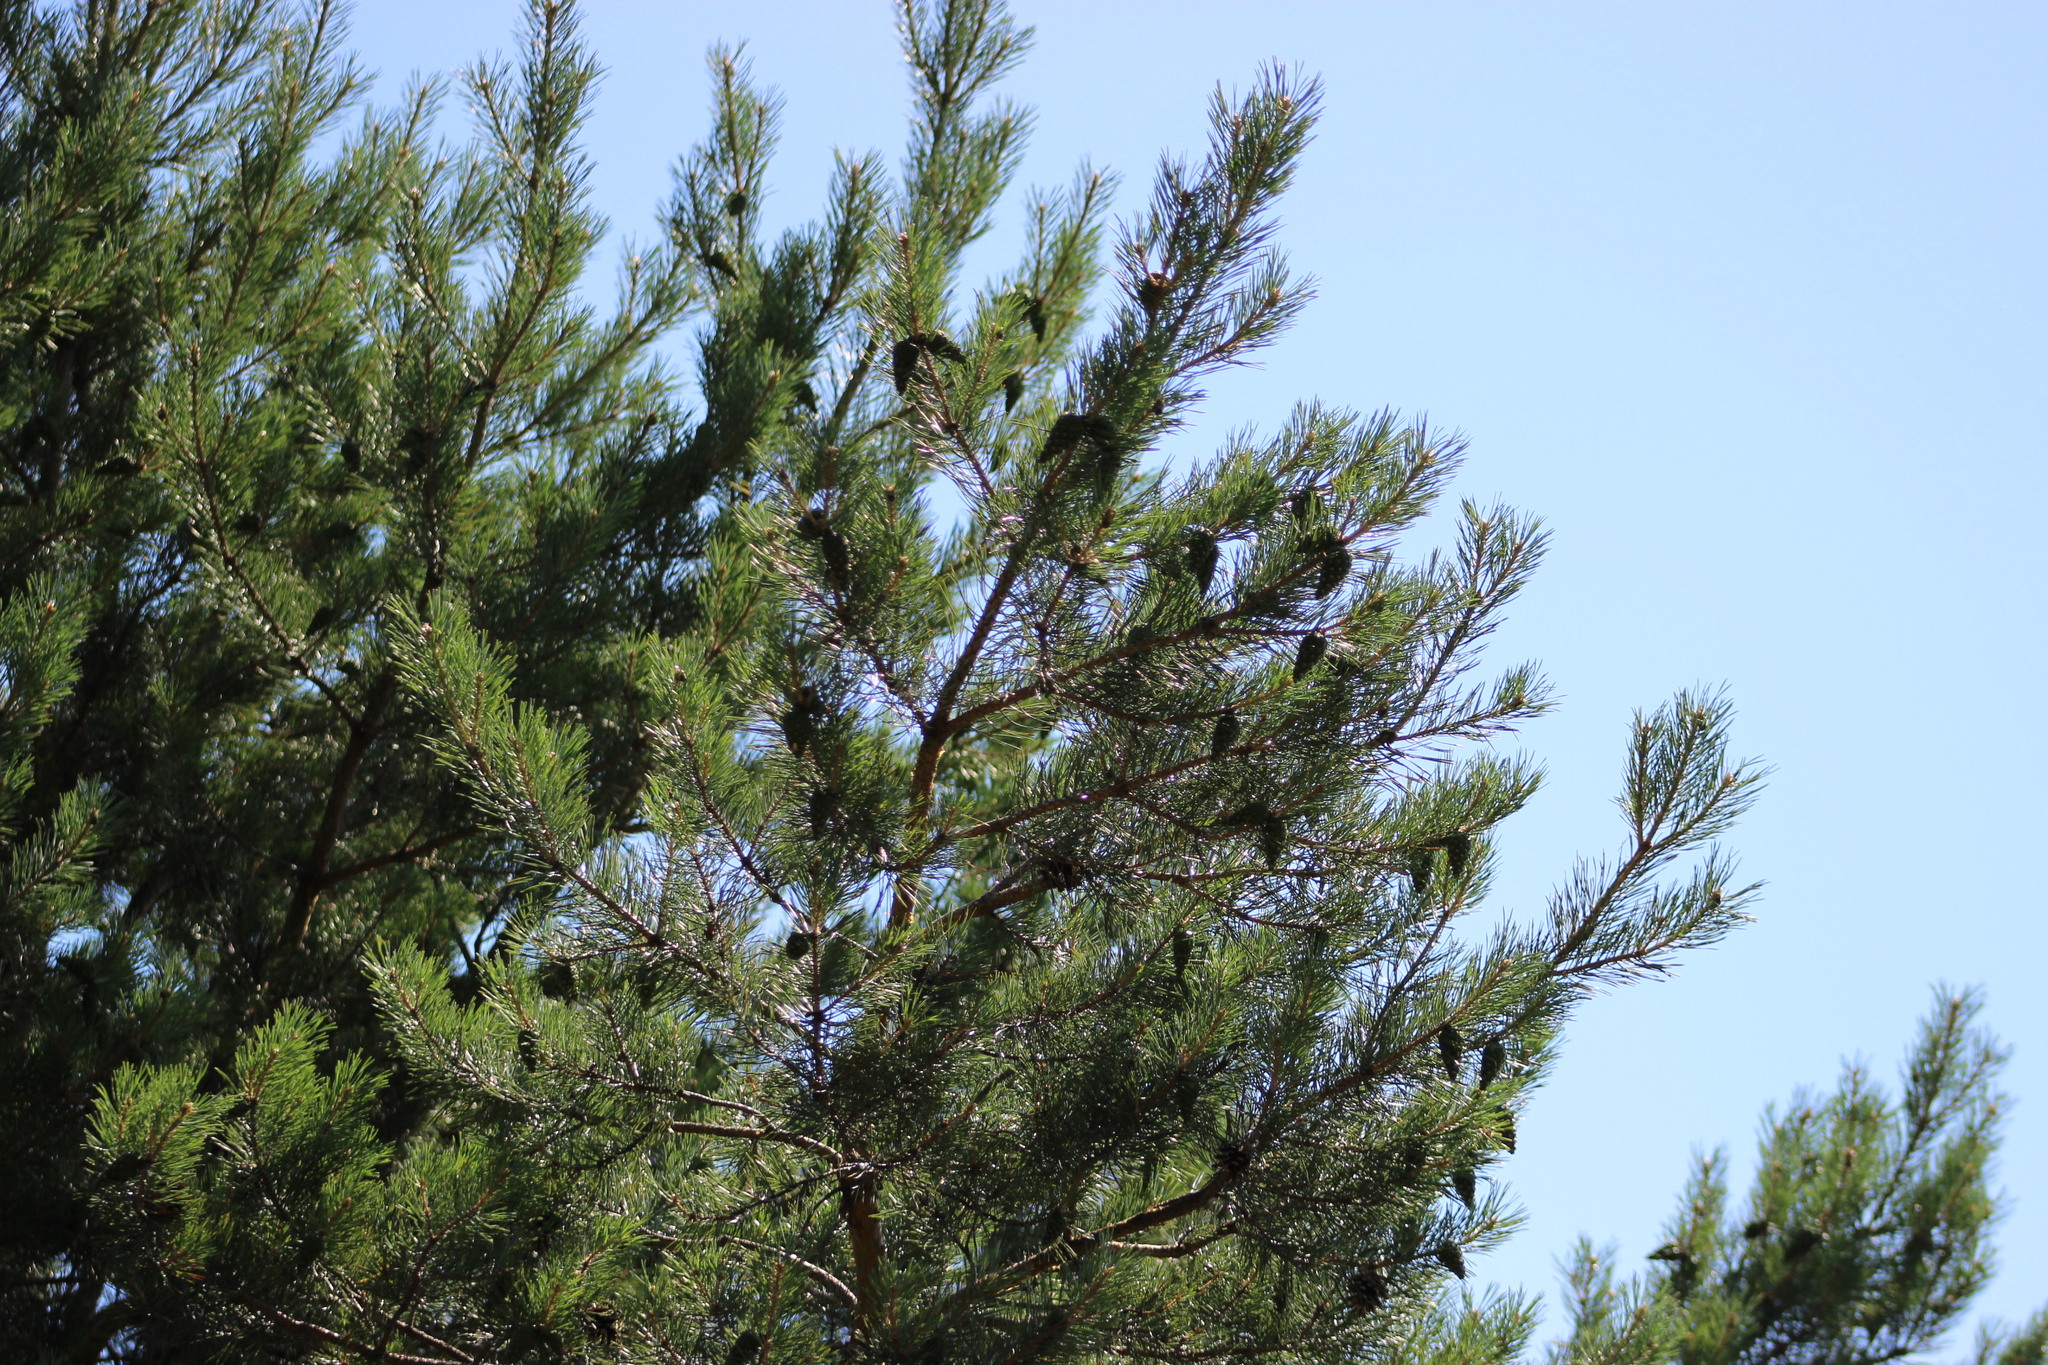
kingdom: Plantae
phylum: Tracheophyta
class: Pinopsida
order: Pinales
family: Pinaceae
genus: Pinus
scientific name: Pinus sylvestris
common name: Scots pine
